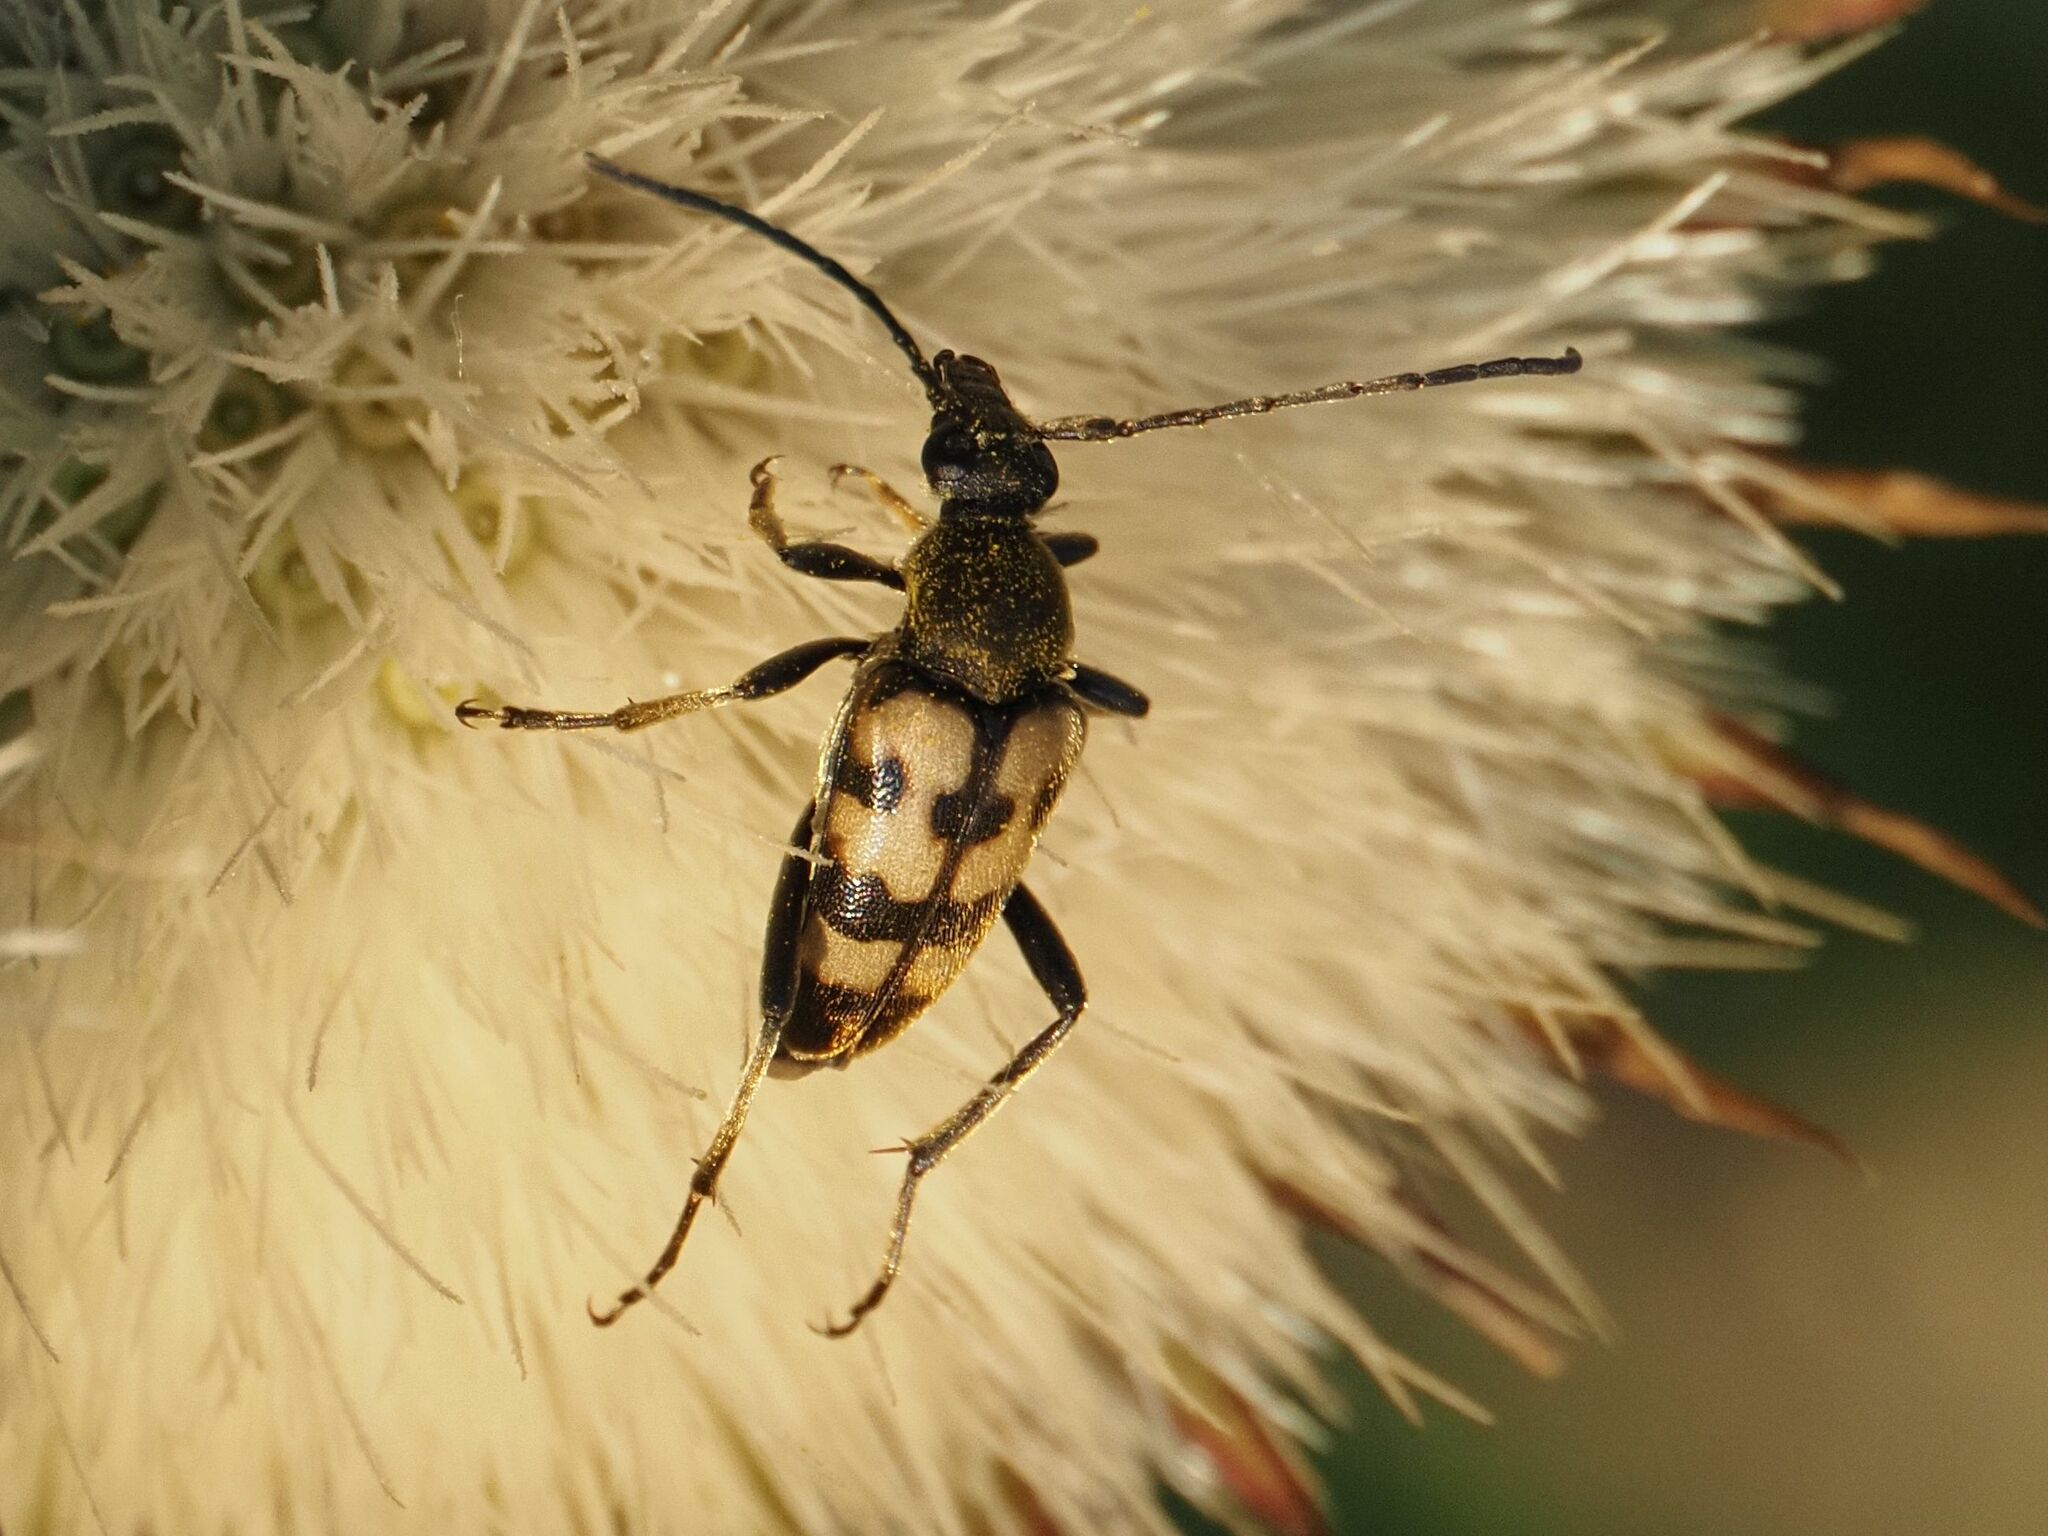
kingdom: Animalia
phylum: Arthropoda
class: Insecta
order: Coleoptera
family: Cerambycidae
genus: Pachytodes
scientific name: Pachytodes
